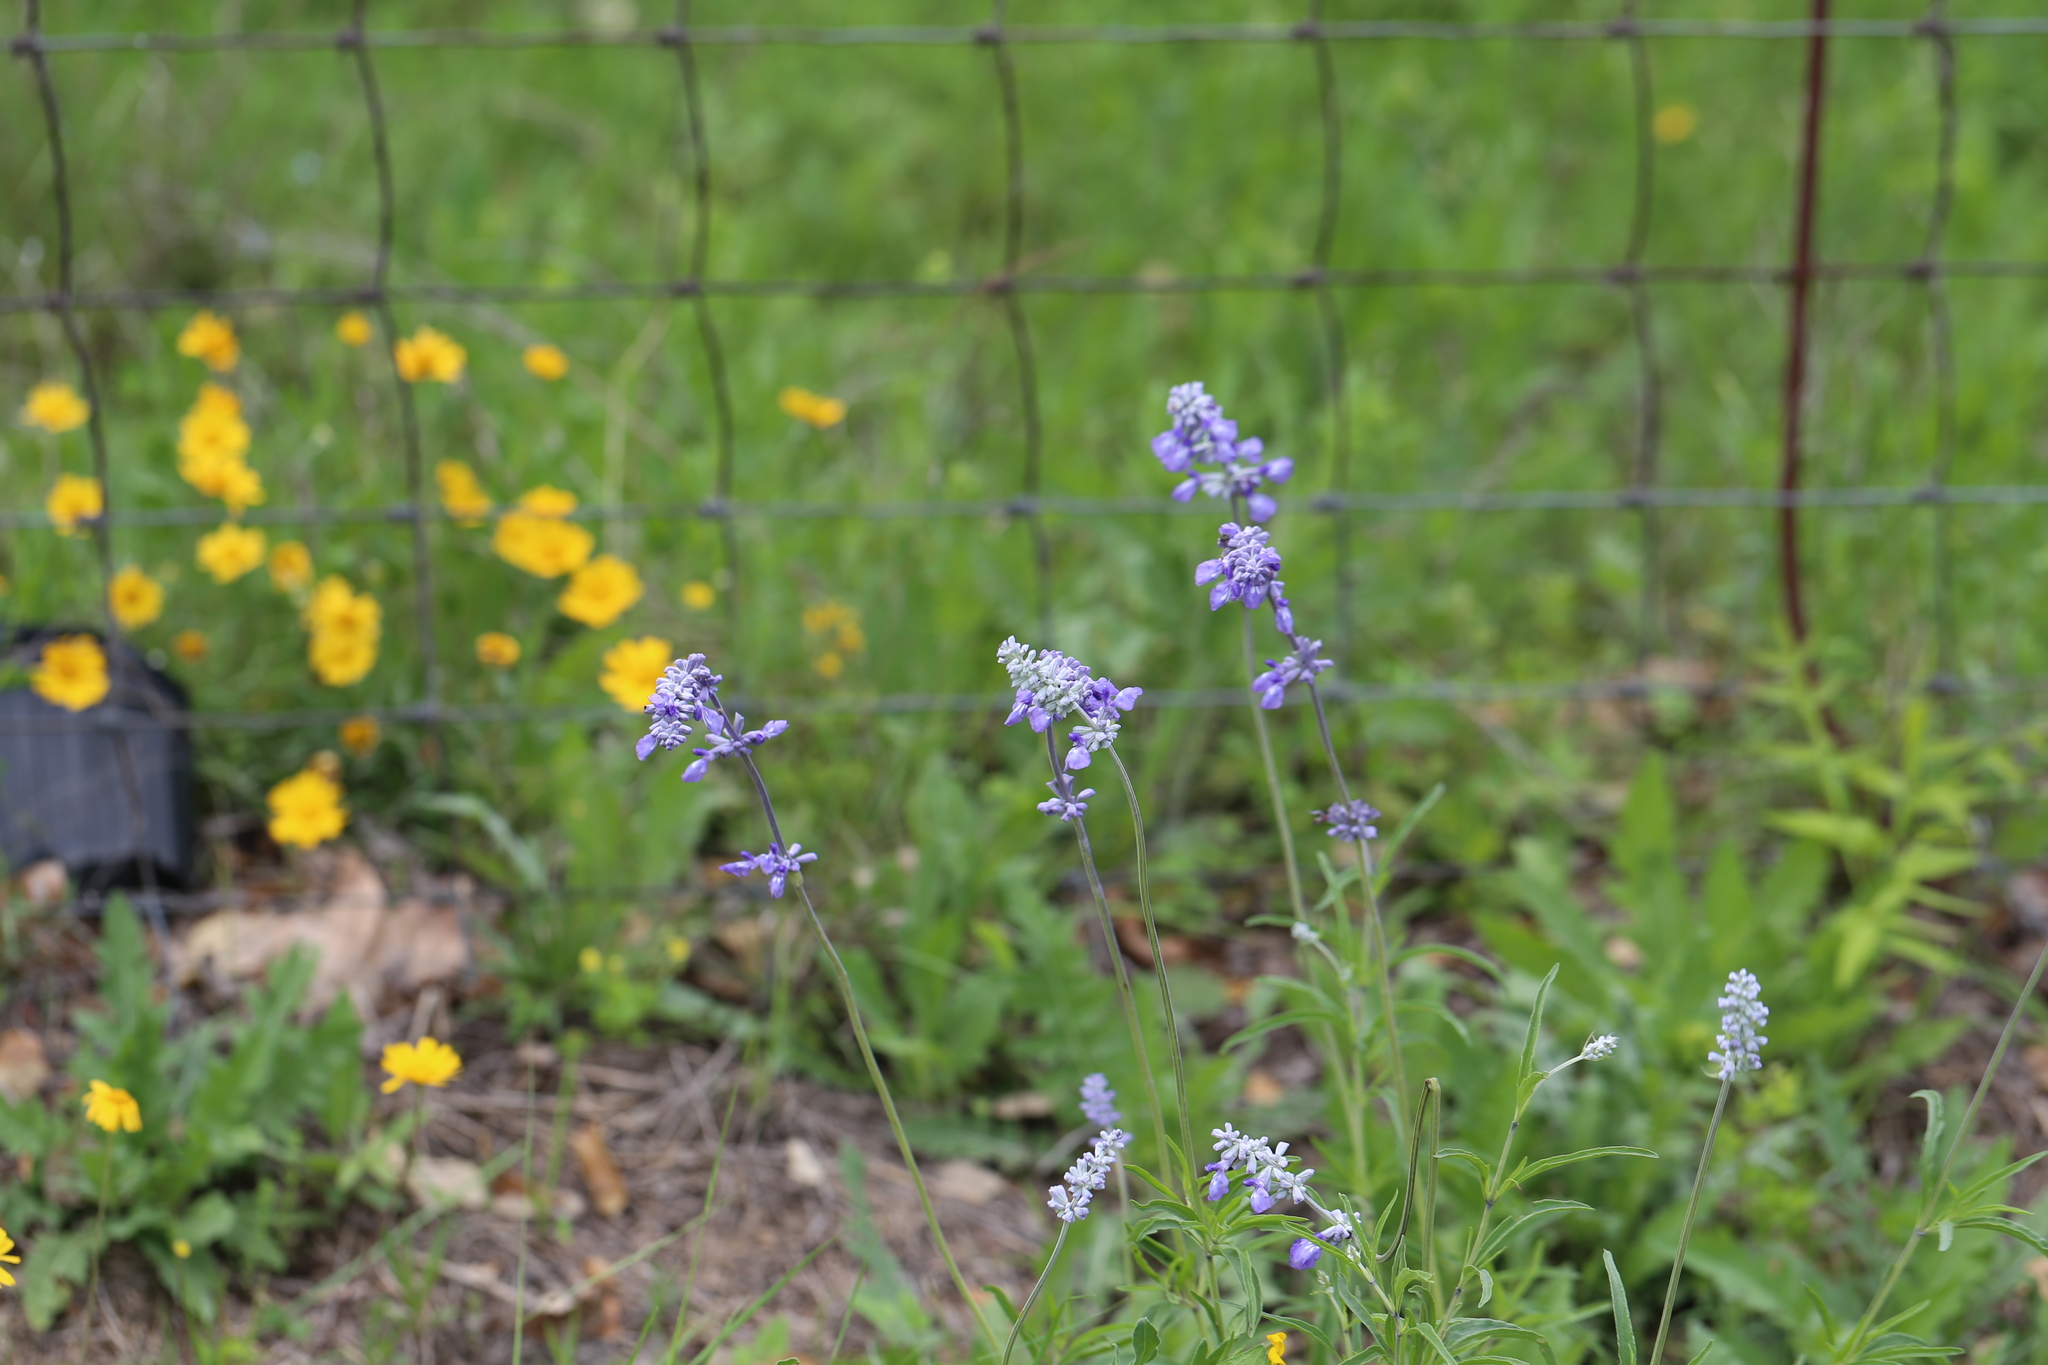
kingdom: Plantae
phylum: Tracheophyta
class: Magnoliopsida
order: Lamiales
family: Lamiaceae
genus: Salvia
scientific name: Salvia farinacea
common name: Mealy sage
